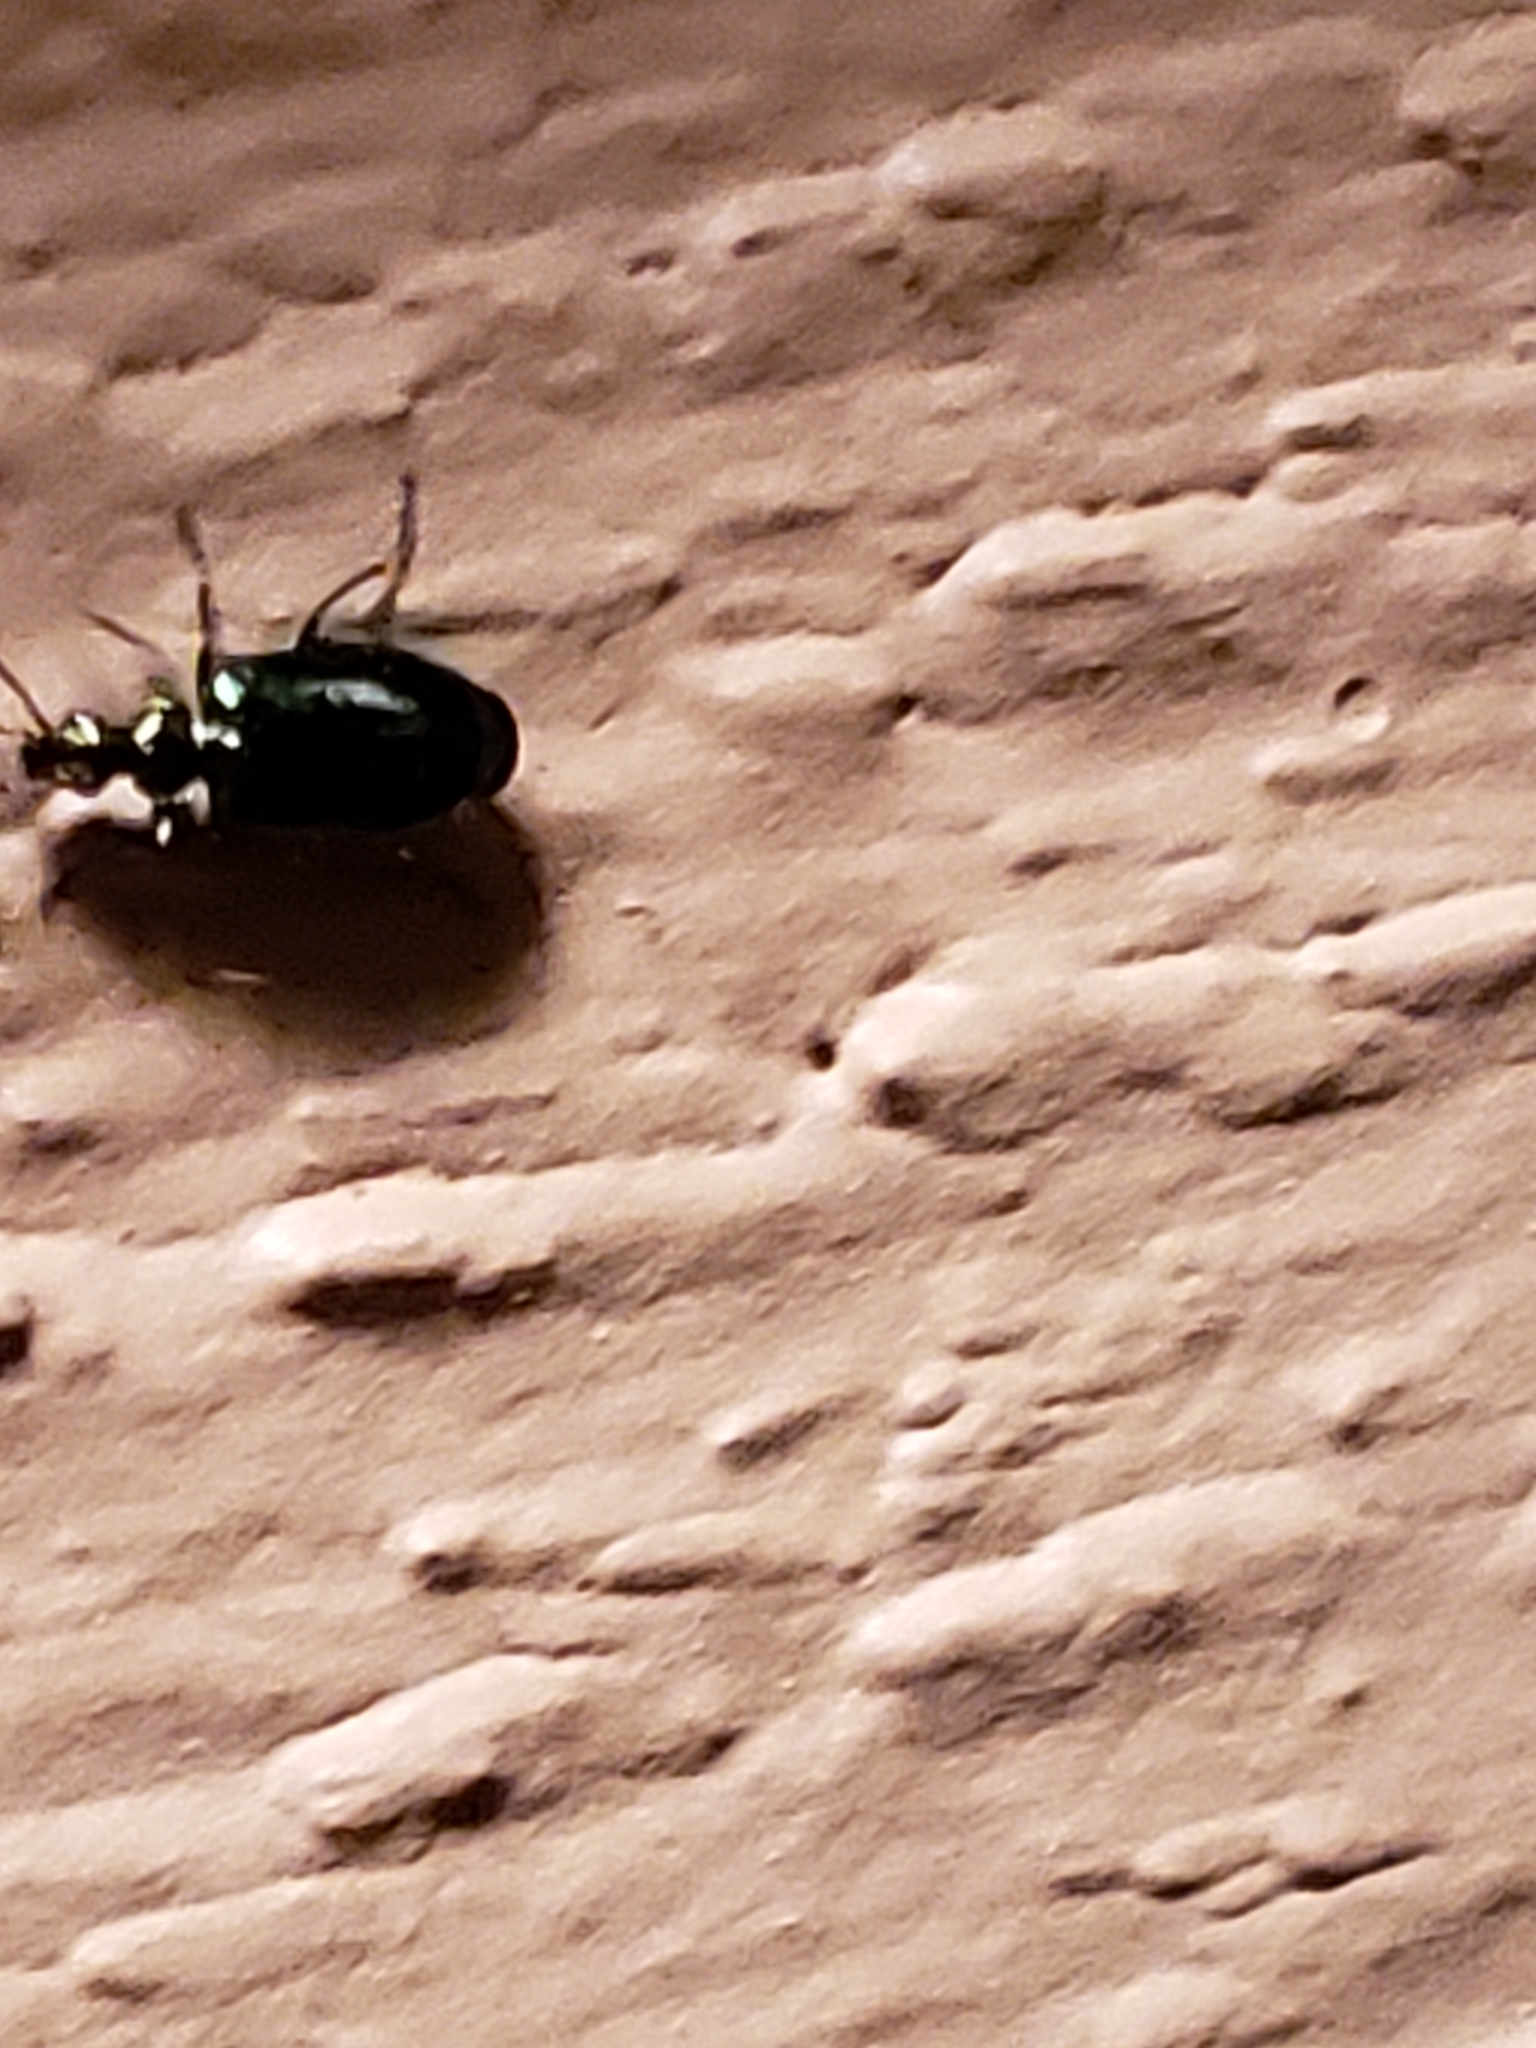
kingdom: Animalia
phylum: Arthropoda
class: Insecta
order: Coleoptera
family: Carabidae
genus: Lebia
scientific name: Lebia viridis
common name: Flower lebia beetle
